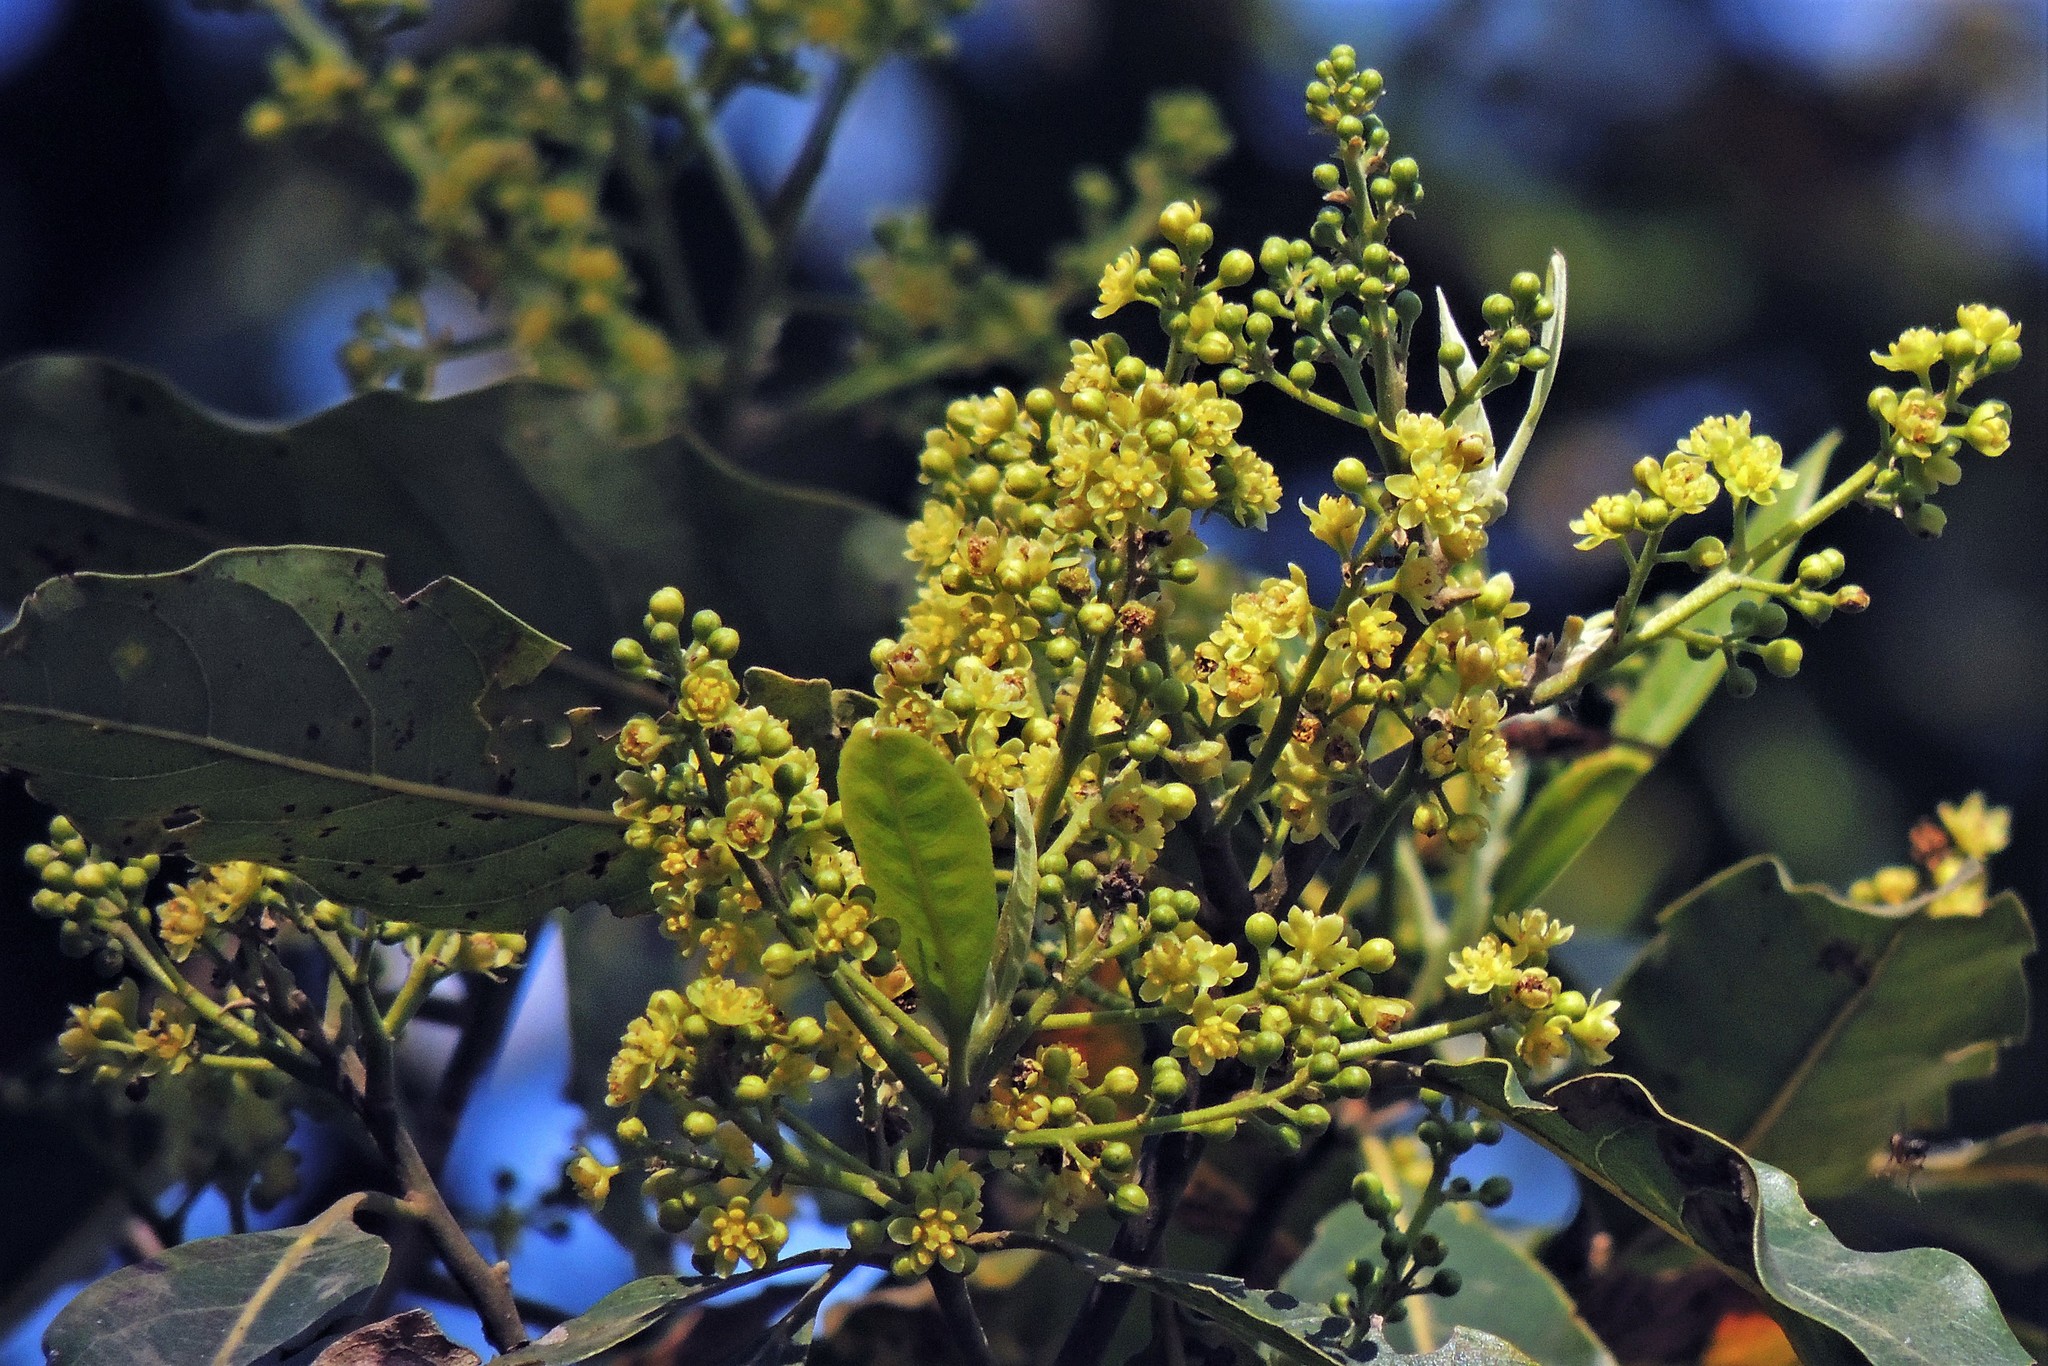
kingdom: Plantae
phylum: Tracheophyta
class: Magnoliopsida
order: Laurales
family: Lauraceae
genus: Ocotea
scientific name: Ocotea puberula
